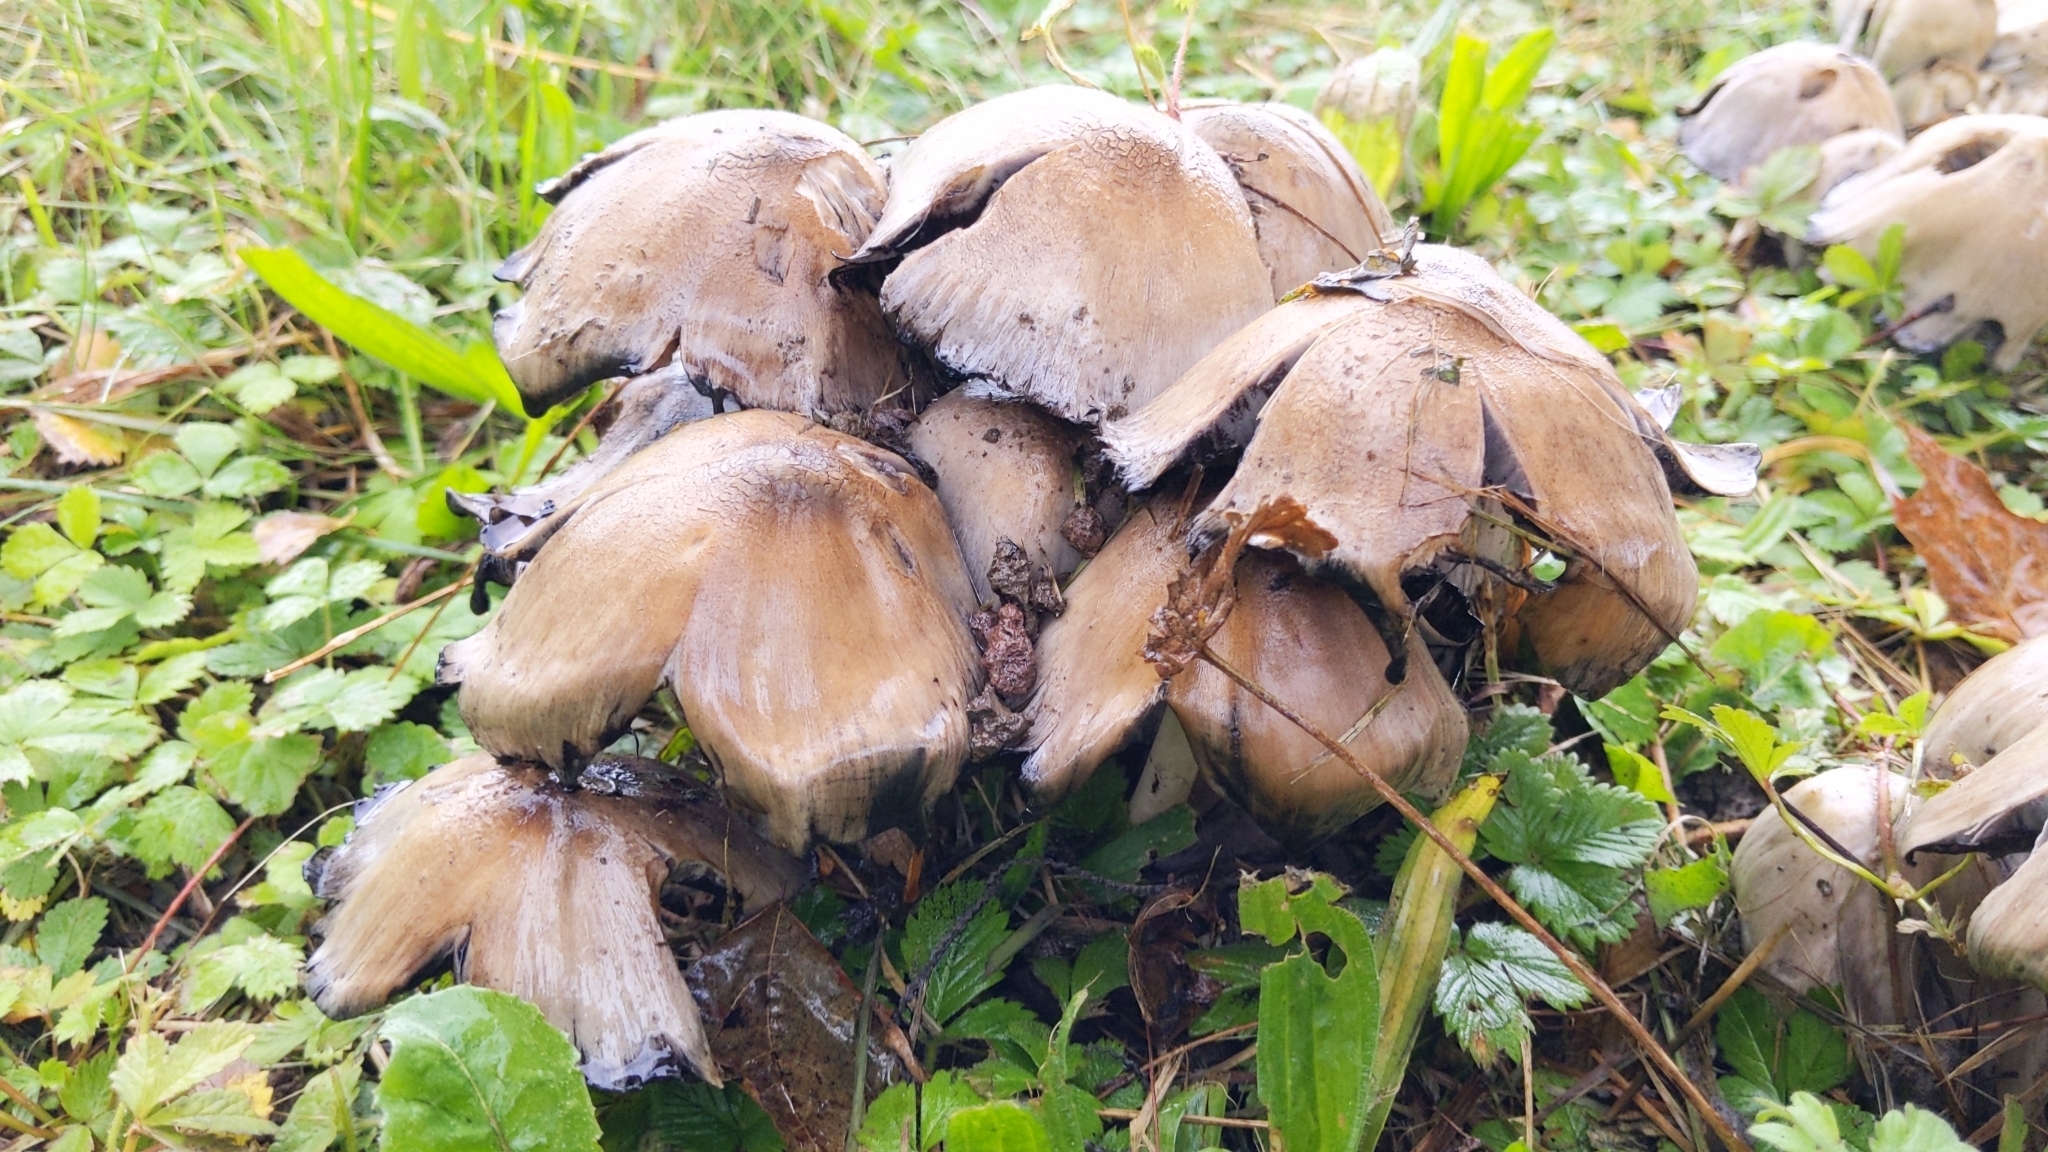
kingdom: Fungi
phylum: Basidiomycota
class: Agaricomycetes
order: Agaricales
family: Psathyrellaceae
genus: Coprinopsis
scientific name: Coprinopsis atramentaria
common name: Common ink-cap
